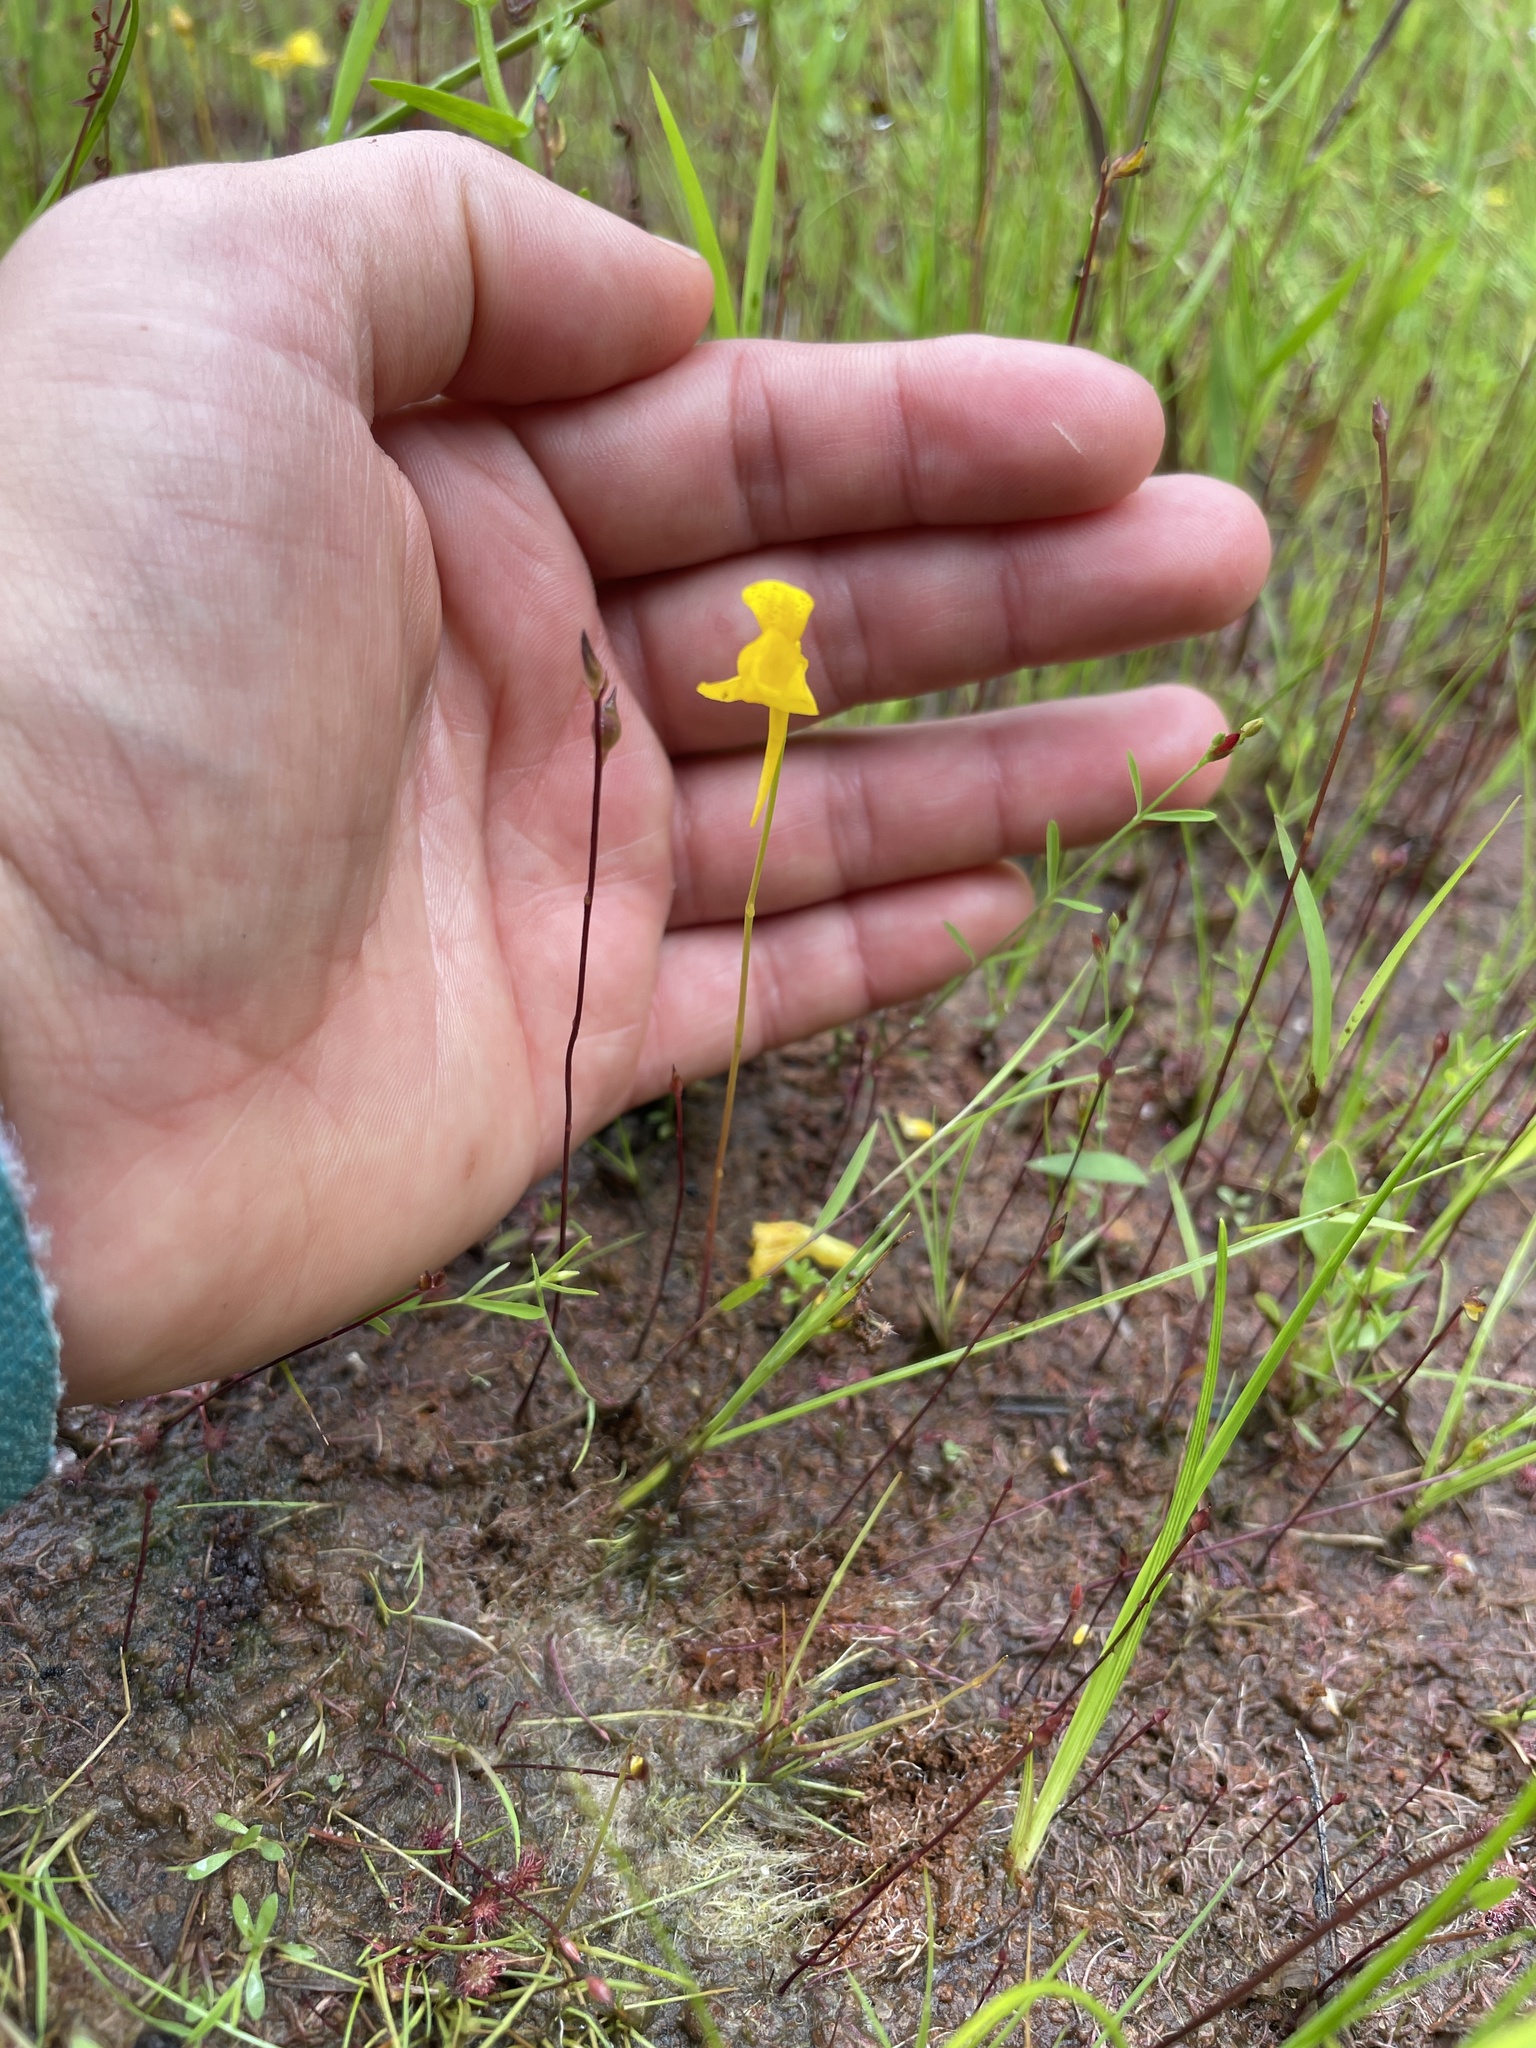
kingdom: Plantae
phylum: Tracheophyta
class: Magnoliopsida
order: Lamiales
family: Lentibulariaceae
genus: Utricularia
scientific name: Utricularia cornuta
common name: Horned bladderwort
